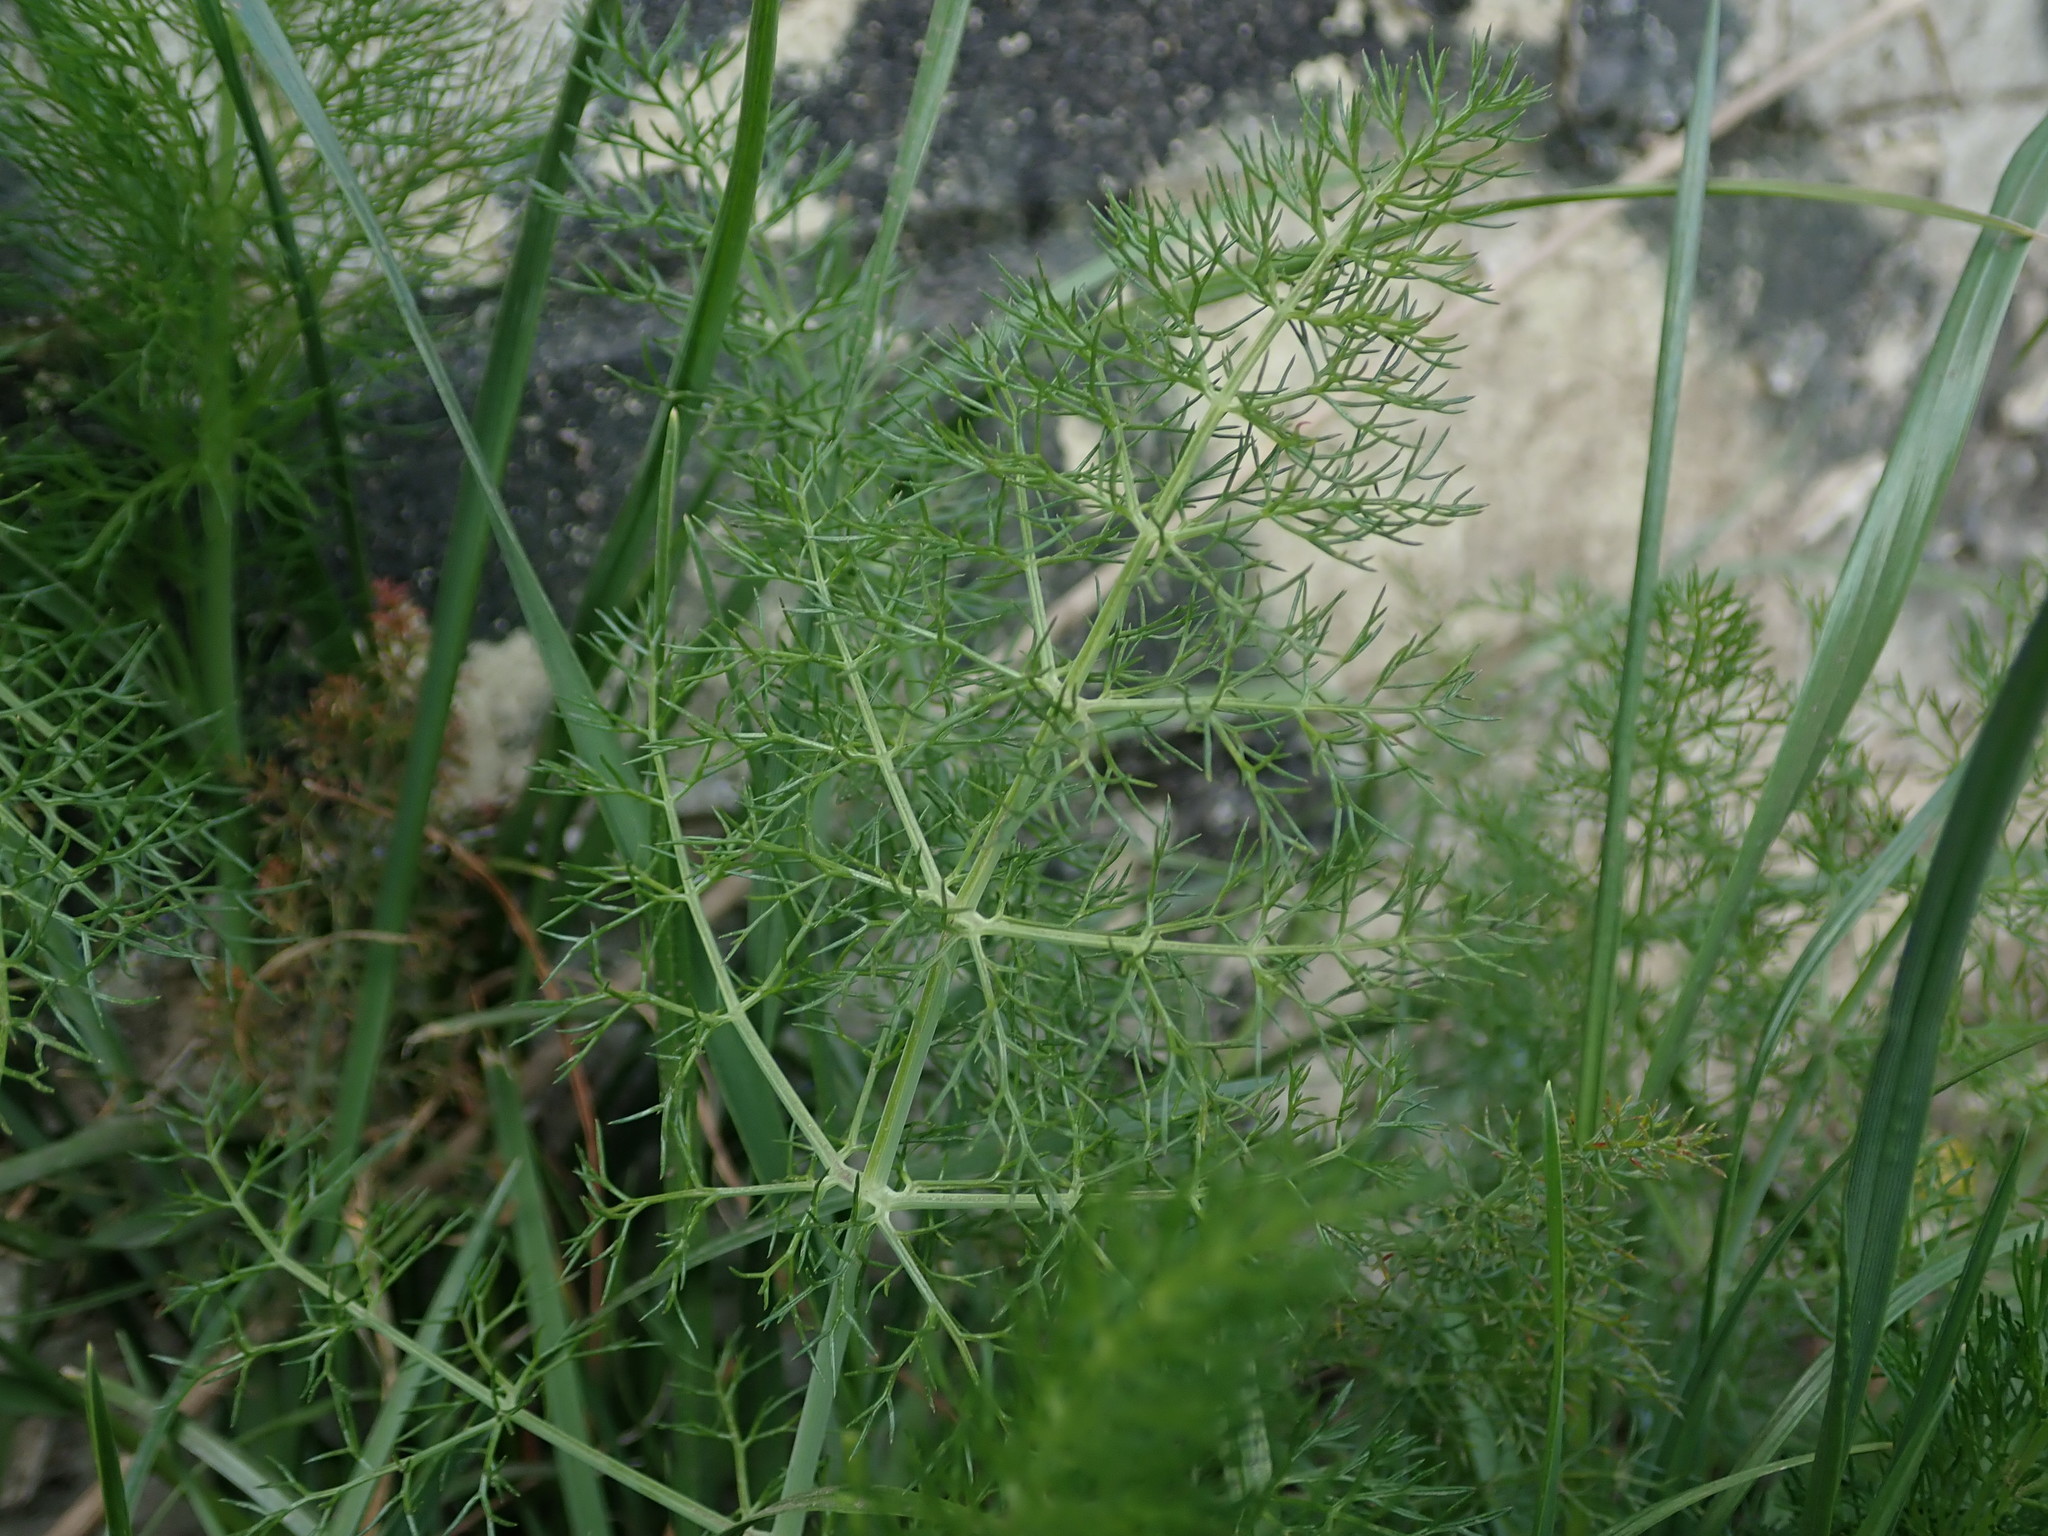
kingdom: Plantae
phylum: Tracheophyta
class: Magnoliopsida
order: Apiales
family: Apiaceae
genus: Foeniculum
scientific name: Foeniculum vulgare
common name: Fennel
